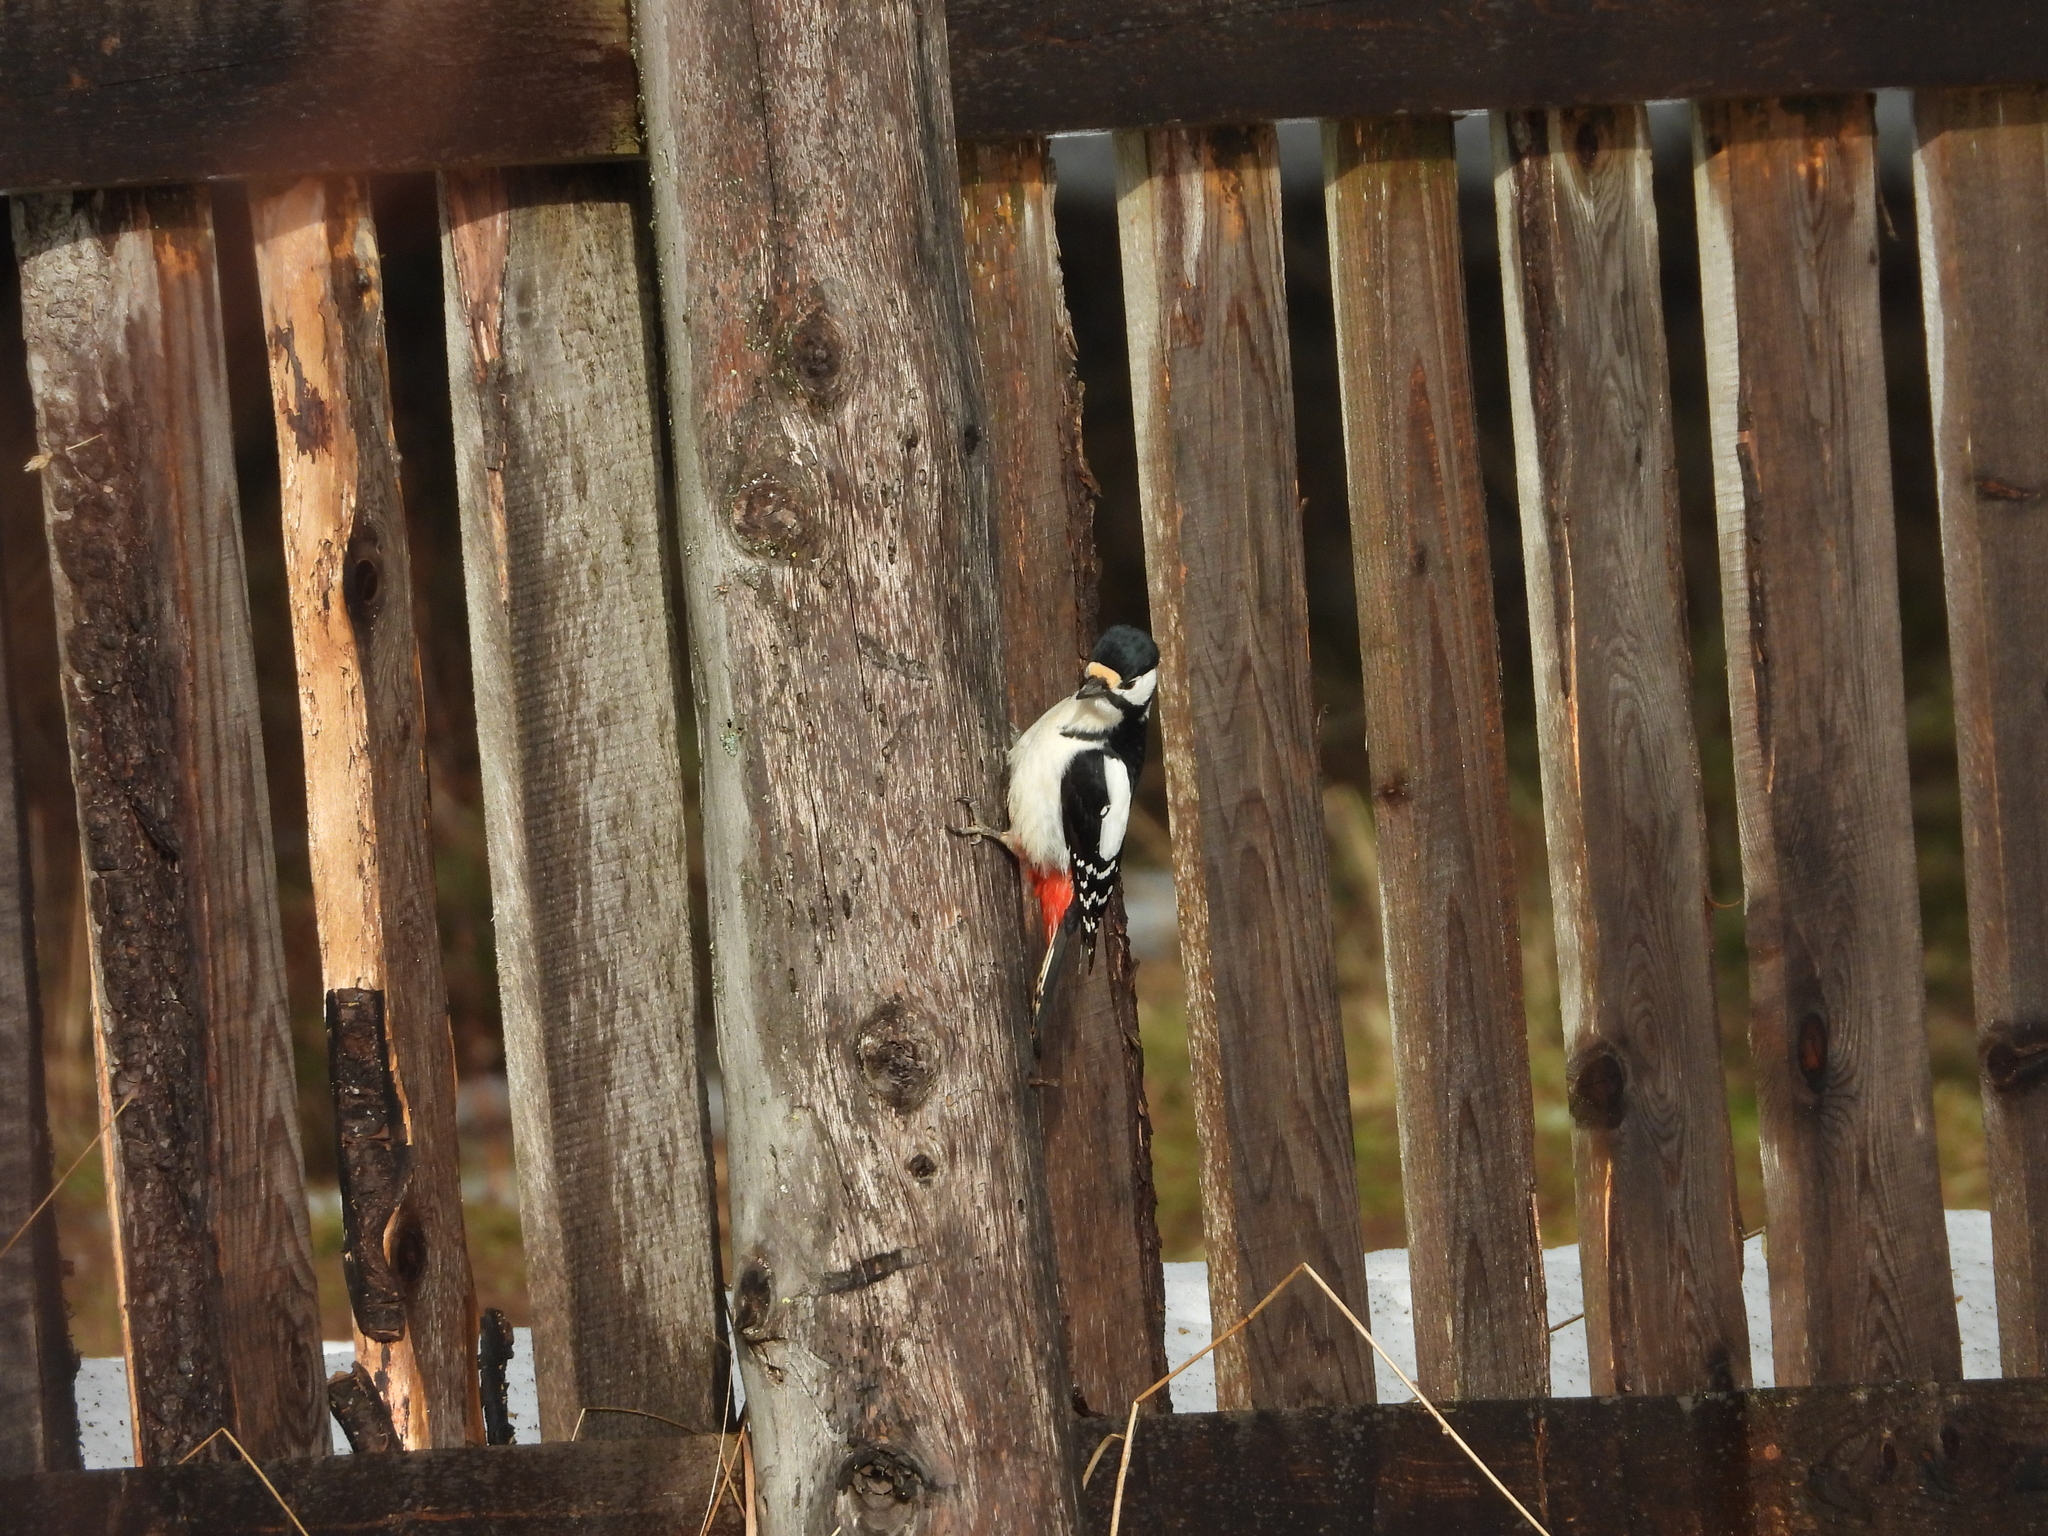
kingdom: Animalia
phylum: Chordata
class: Aves
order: Piciformes
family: Picidae
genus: Dendrocopos
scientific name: Dendrocopos major
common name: Great spotted woodpecker
